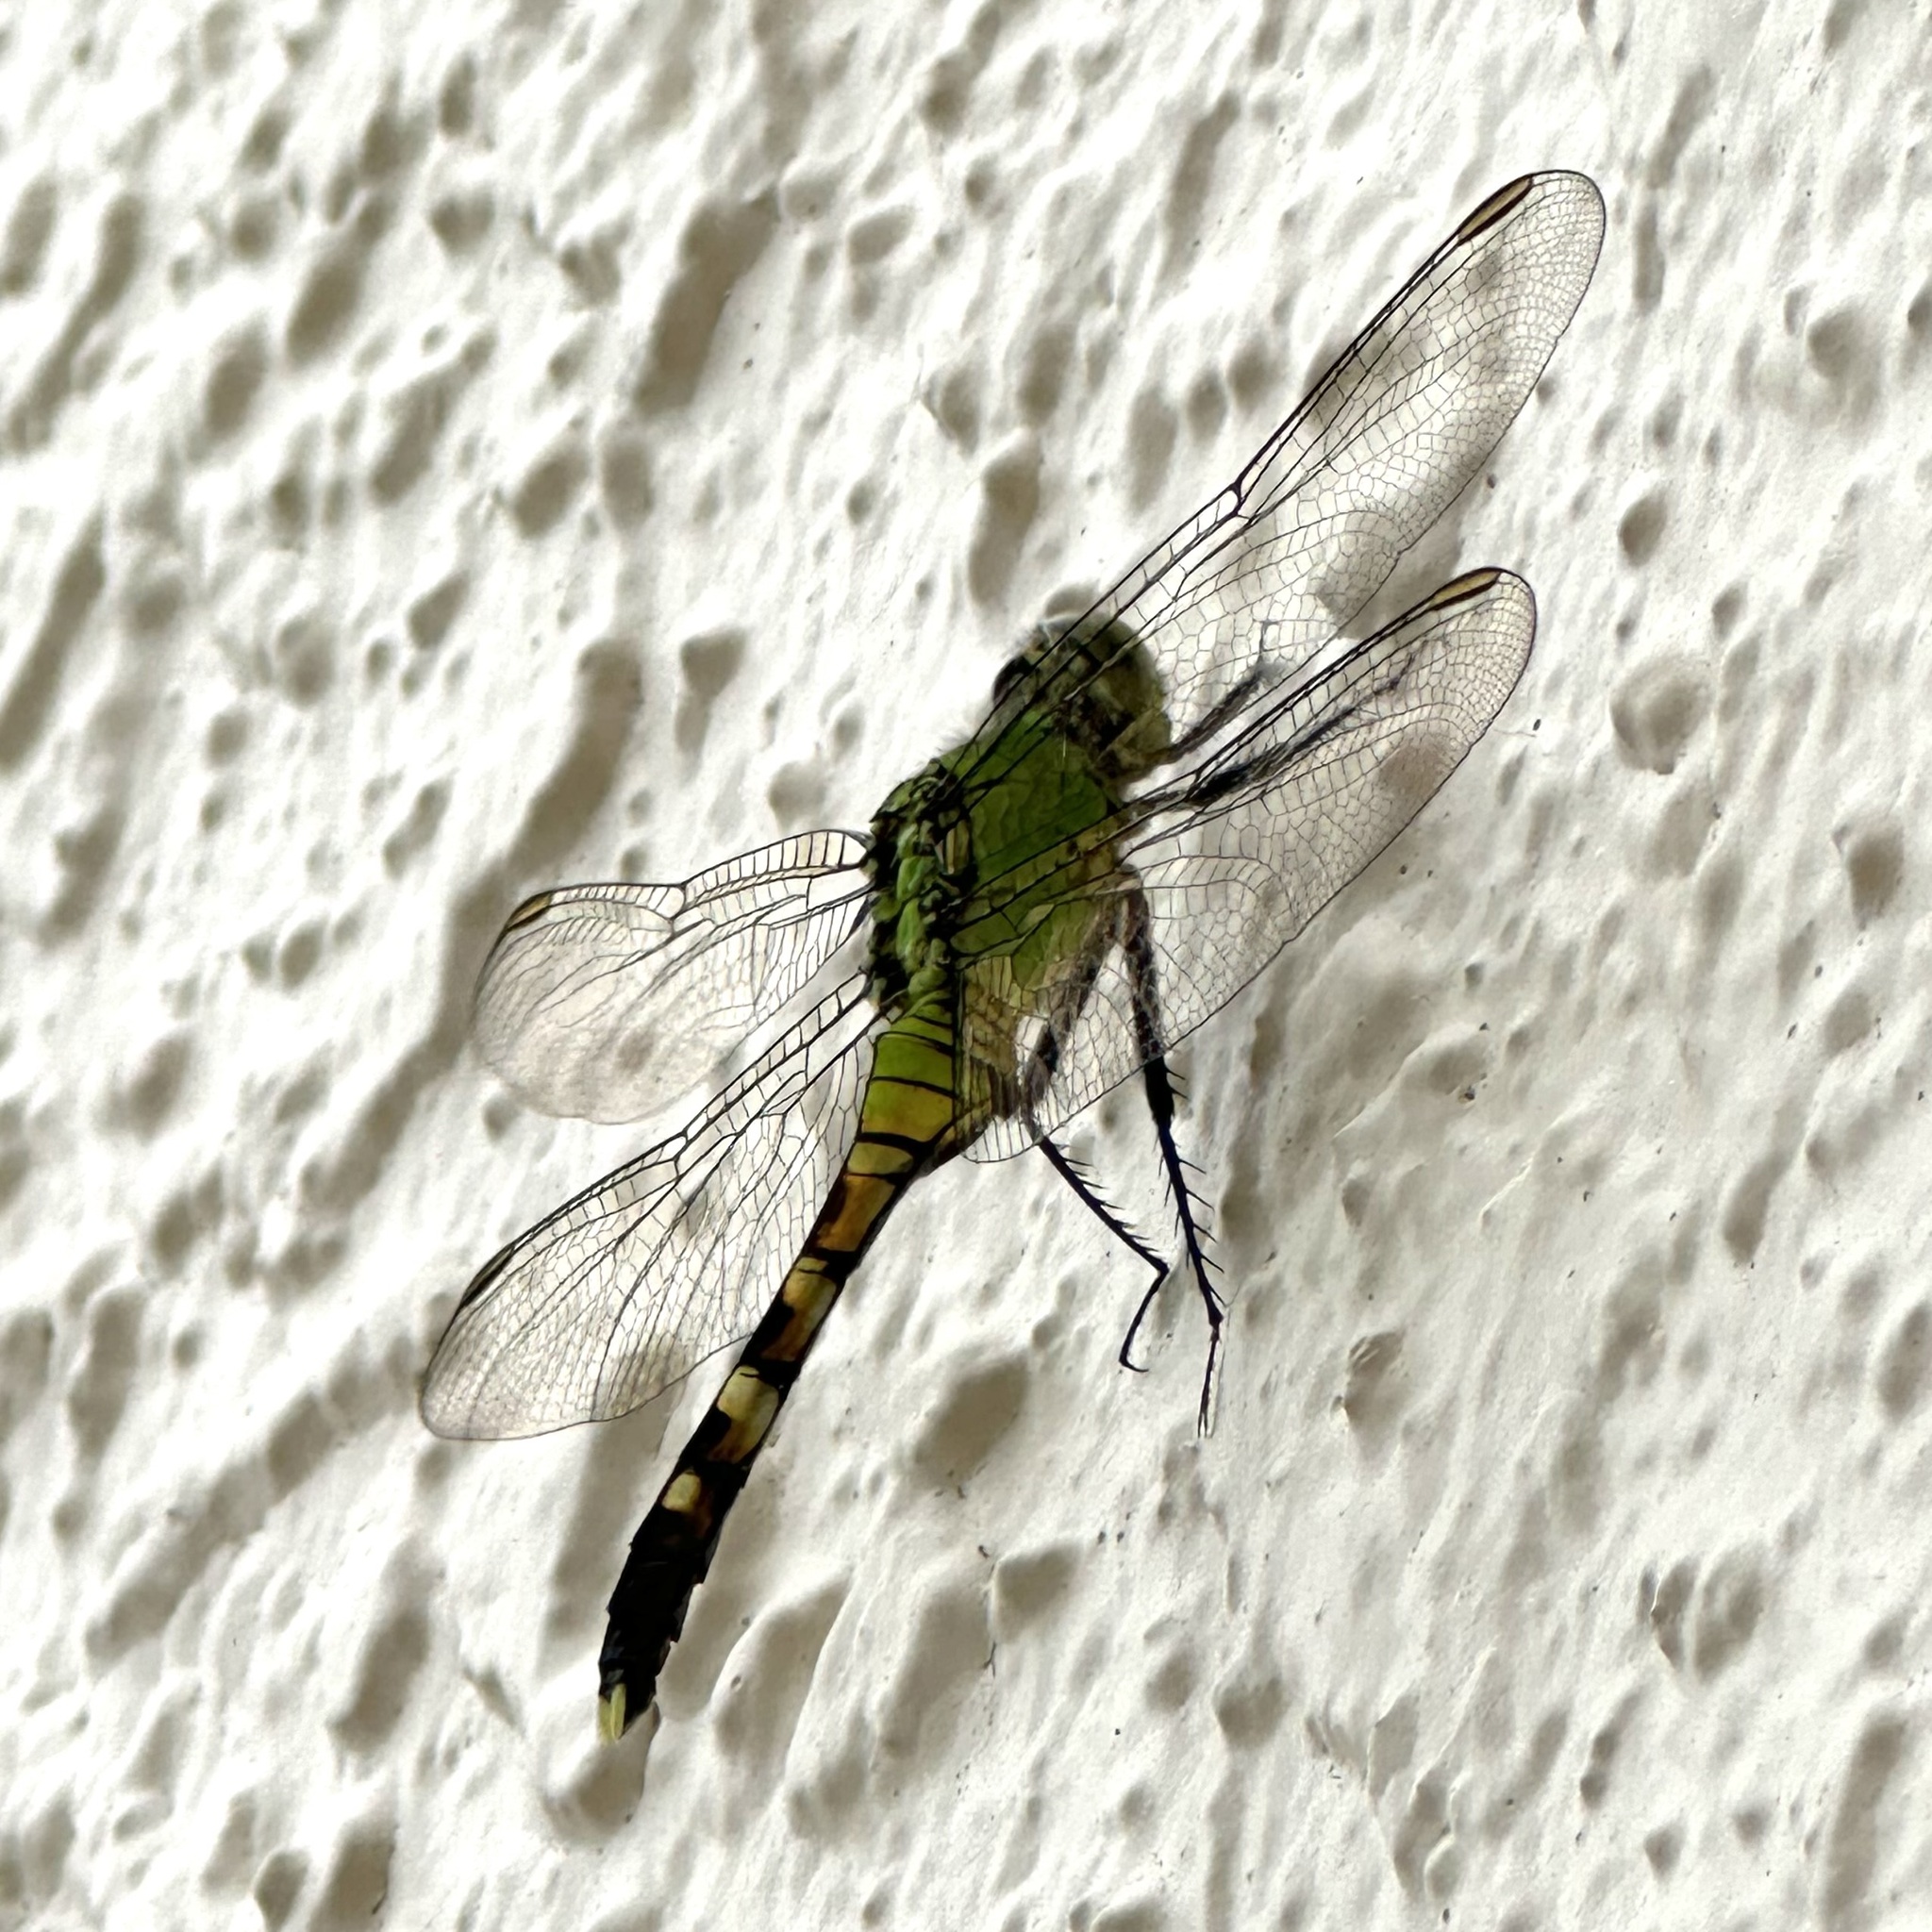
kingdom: Animalia
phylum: Arthropoda
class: Insecta
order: Odonata
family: Libellulidae
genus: Erythemis
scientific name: Erythemis simplicicollis
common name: Eastern pondhawk
